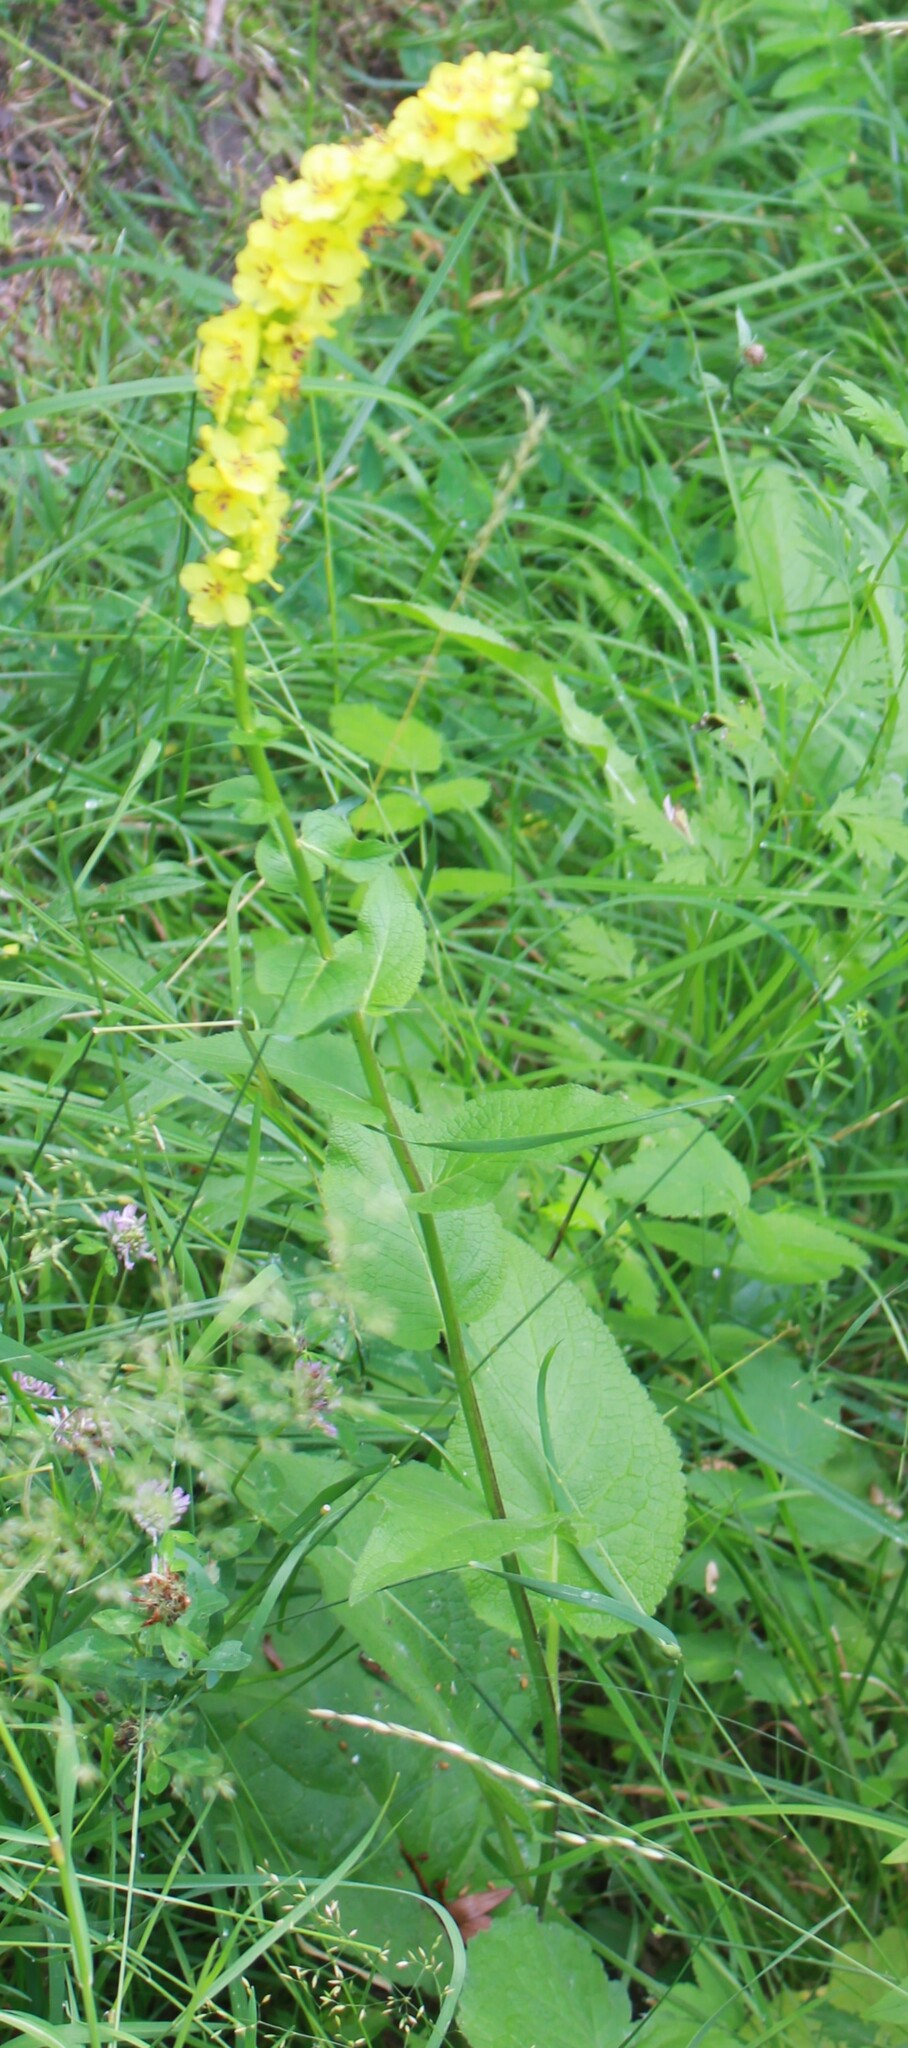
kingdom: Plantae
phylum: Tracheophyta
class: Magnoliopsida
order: Lamiales
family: Scrophulariaceae
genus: Verbascum
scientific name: Verbascum nigrum
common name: Dark mullein
